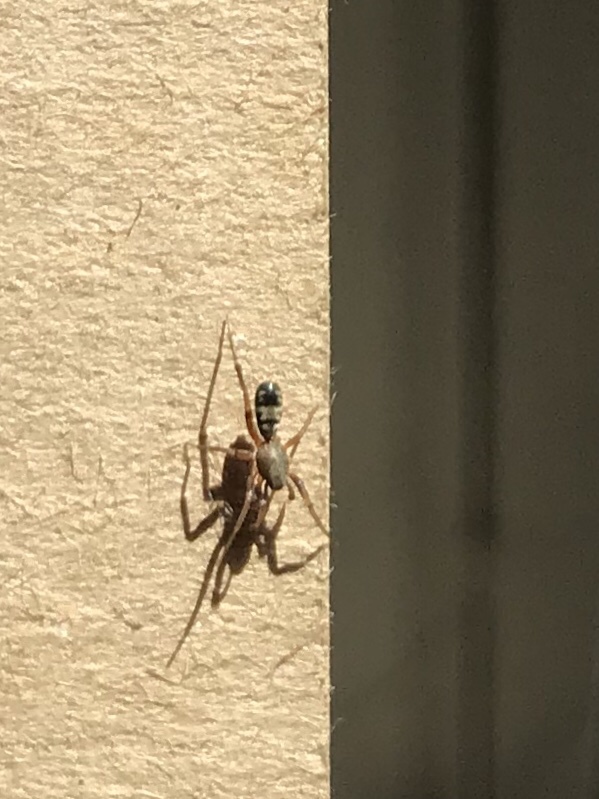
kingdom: Animalia
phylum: Arthropoda
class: Arachnida
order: Araneae
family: Corinnidae
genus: Castianeira
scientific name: Castianeira athena
